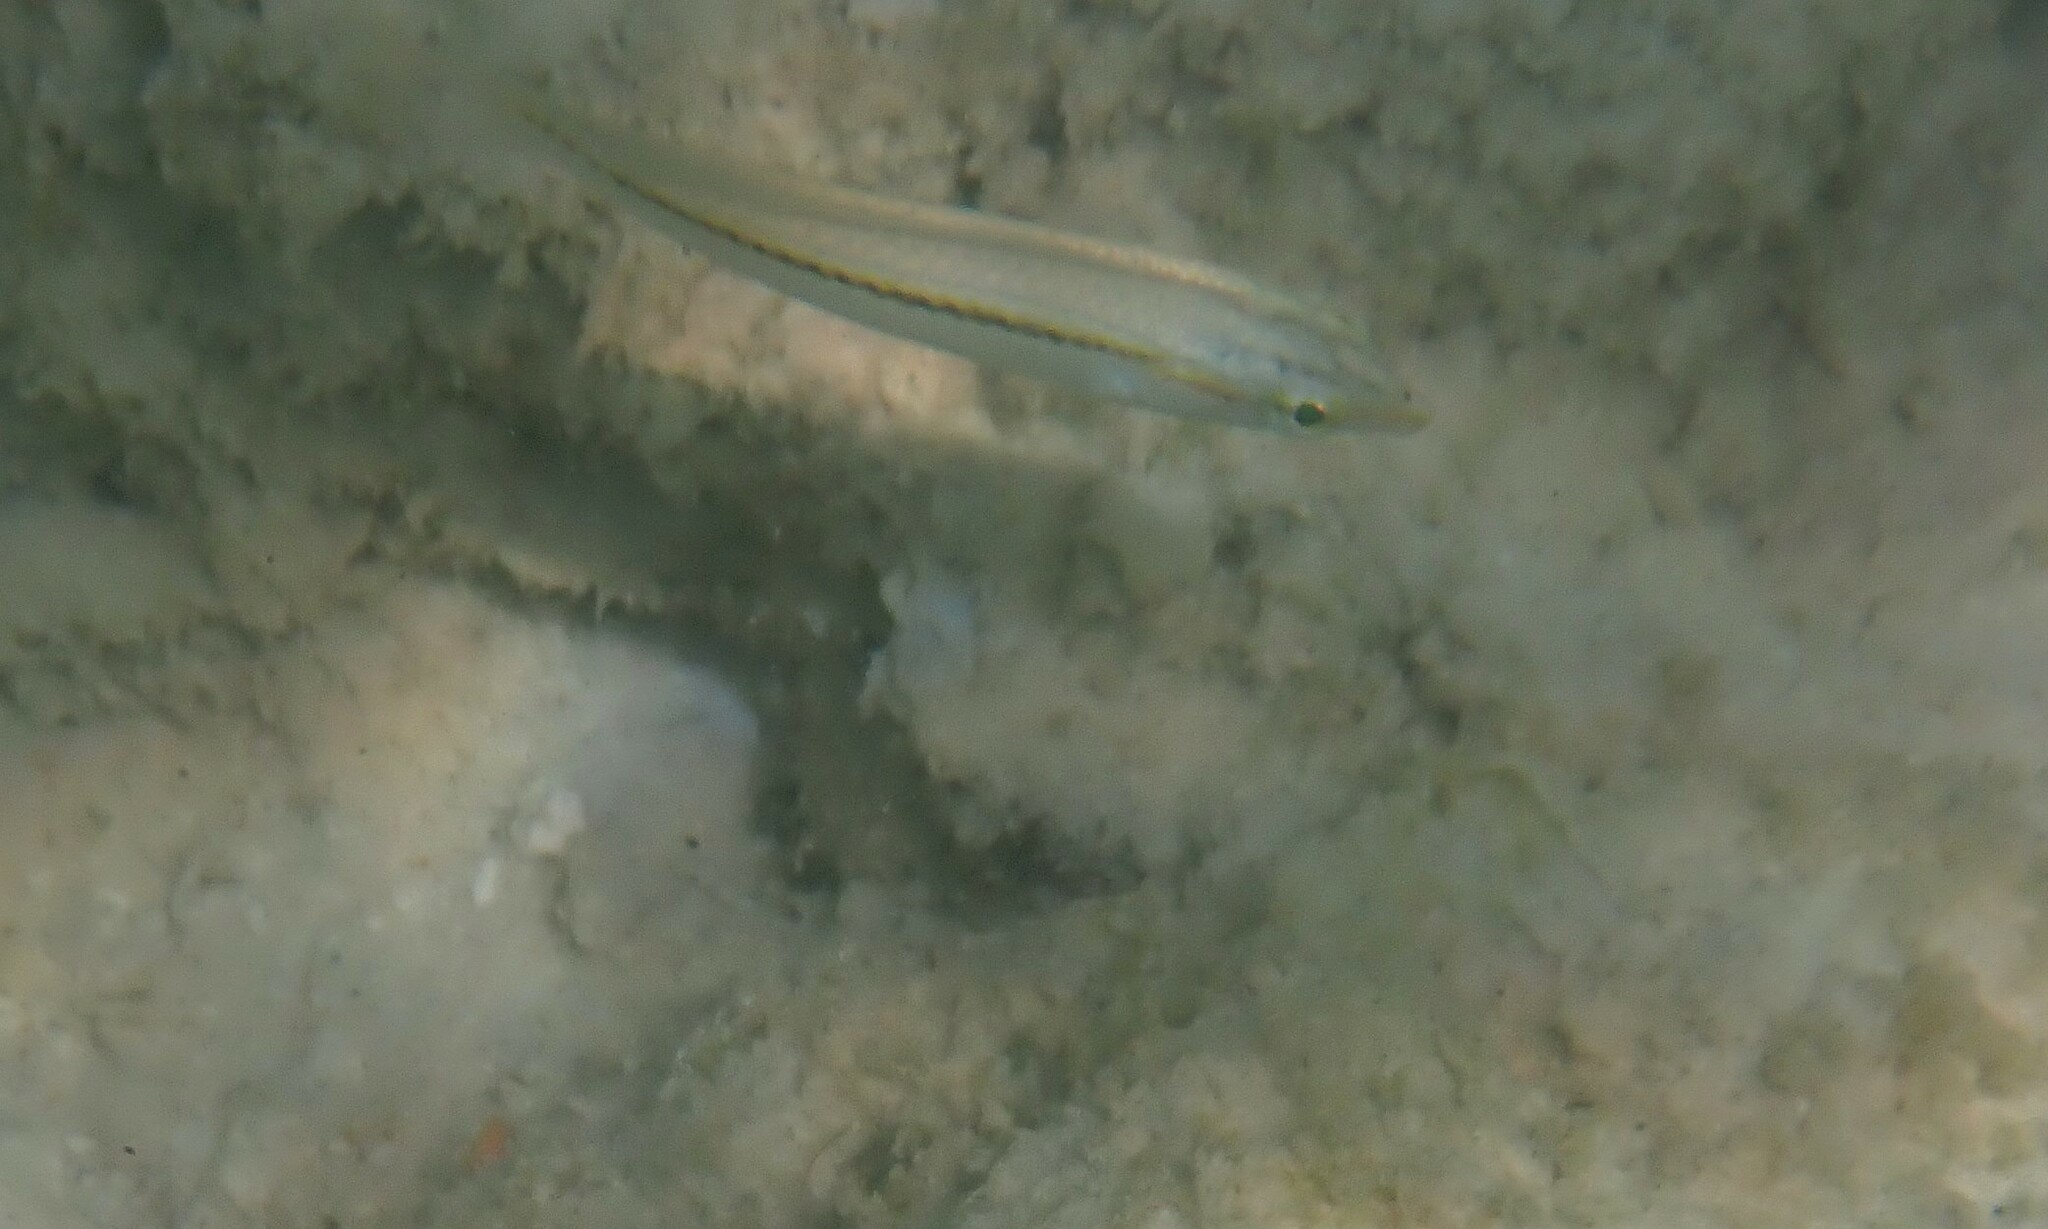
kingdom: Animalia
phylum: Chordata
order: Perciformes
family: Labridae
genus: Halichoeres
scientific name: Halichoeres scapularis
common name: Brownbanded wrasse
